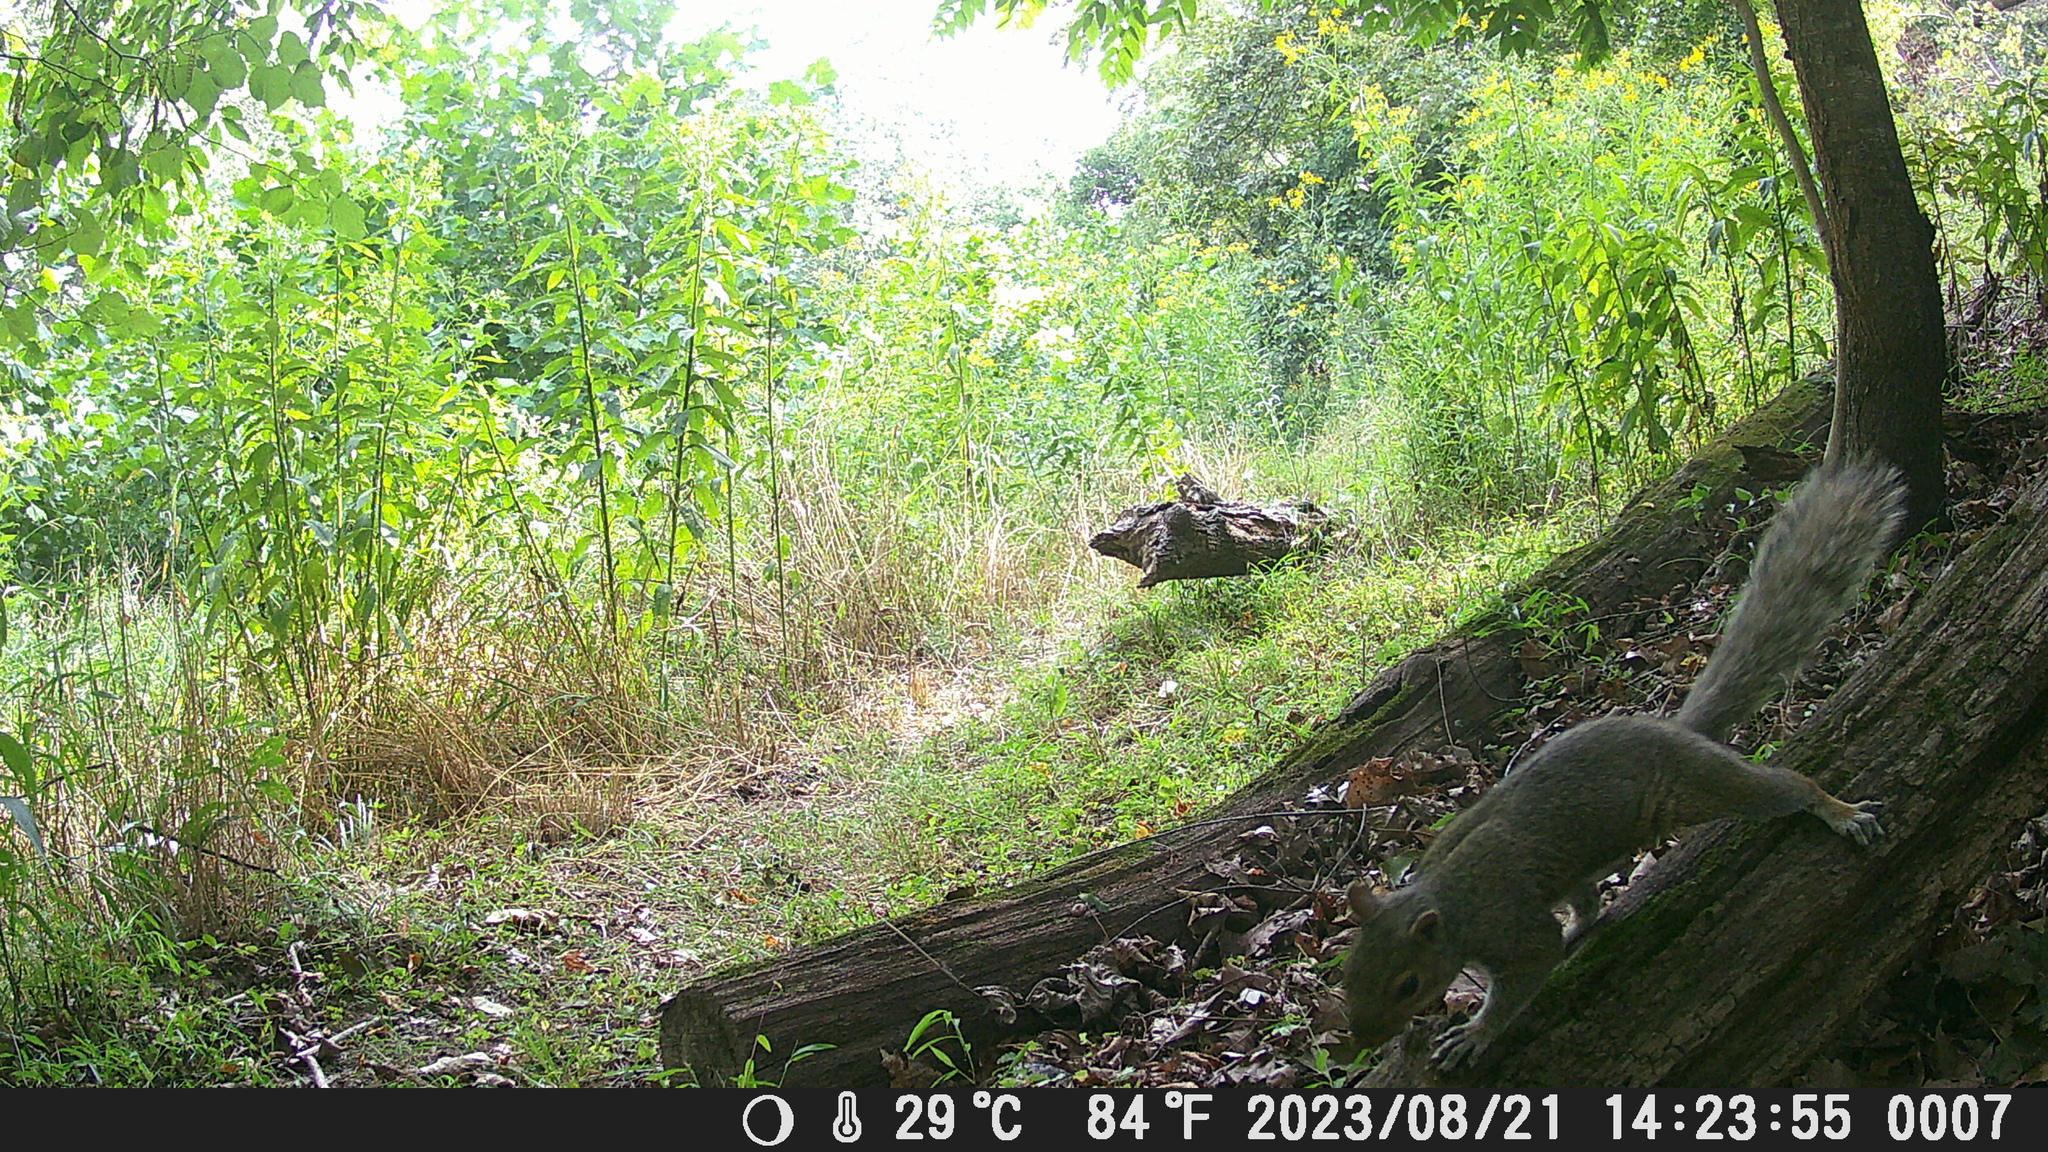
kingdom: Animalia
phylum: Chordata
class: Mammalia
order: Rodentia
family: Sciuridae
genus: Sciurus
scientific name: Sciurus carolinensis
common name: Eastern gray squirrel
